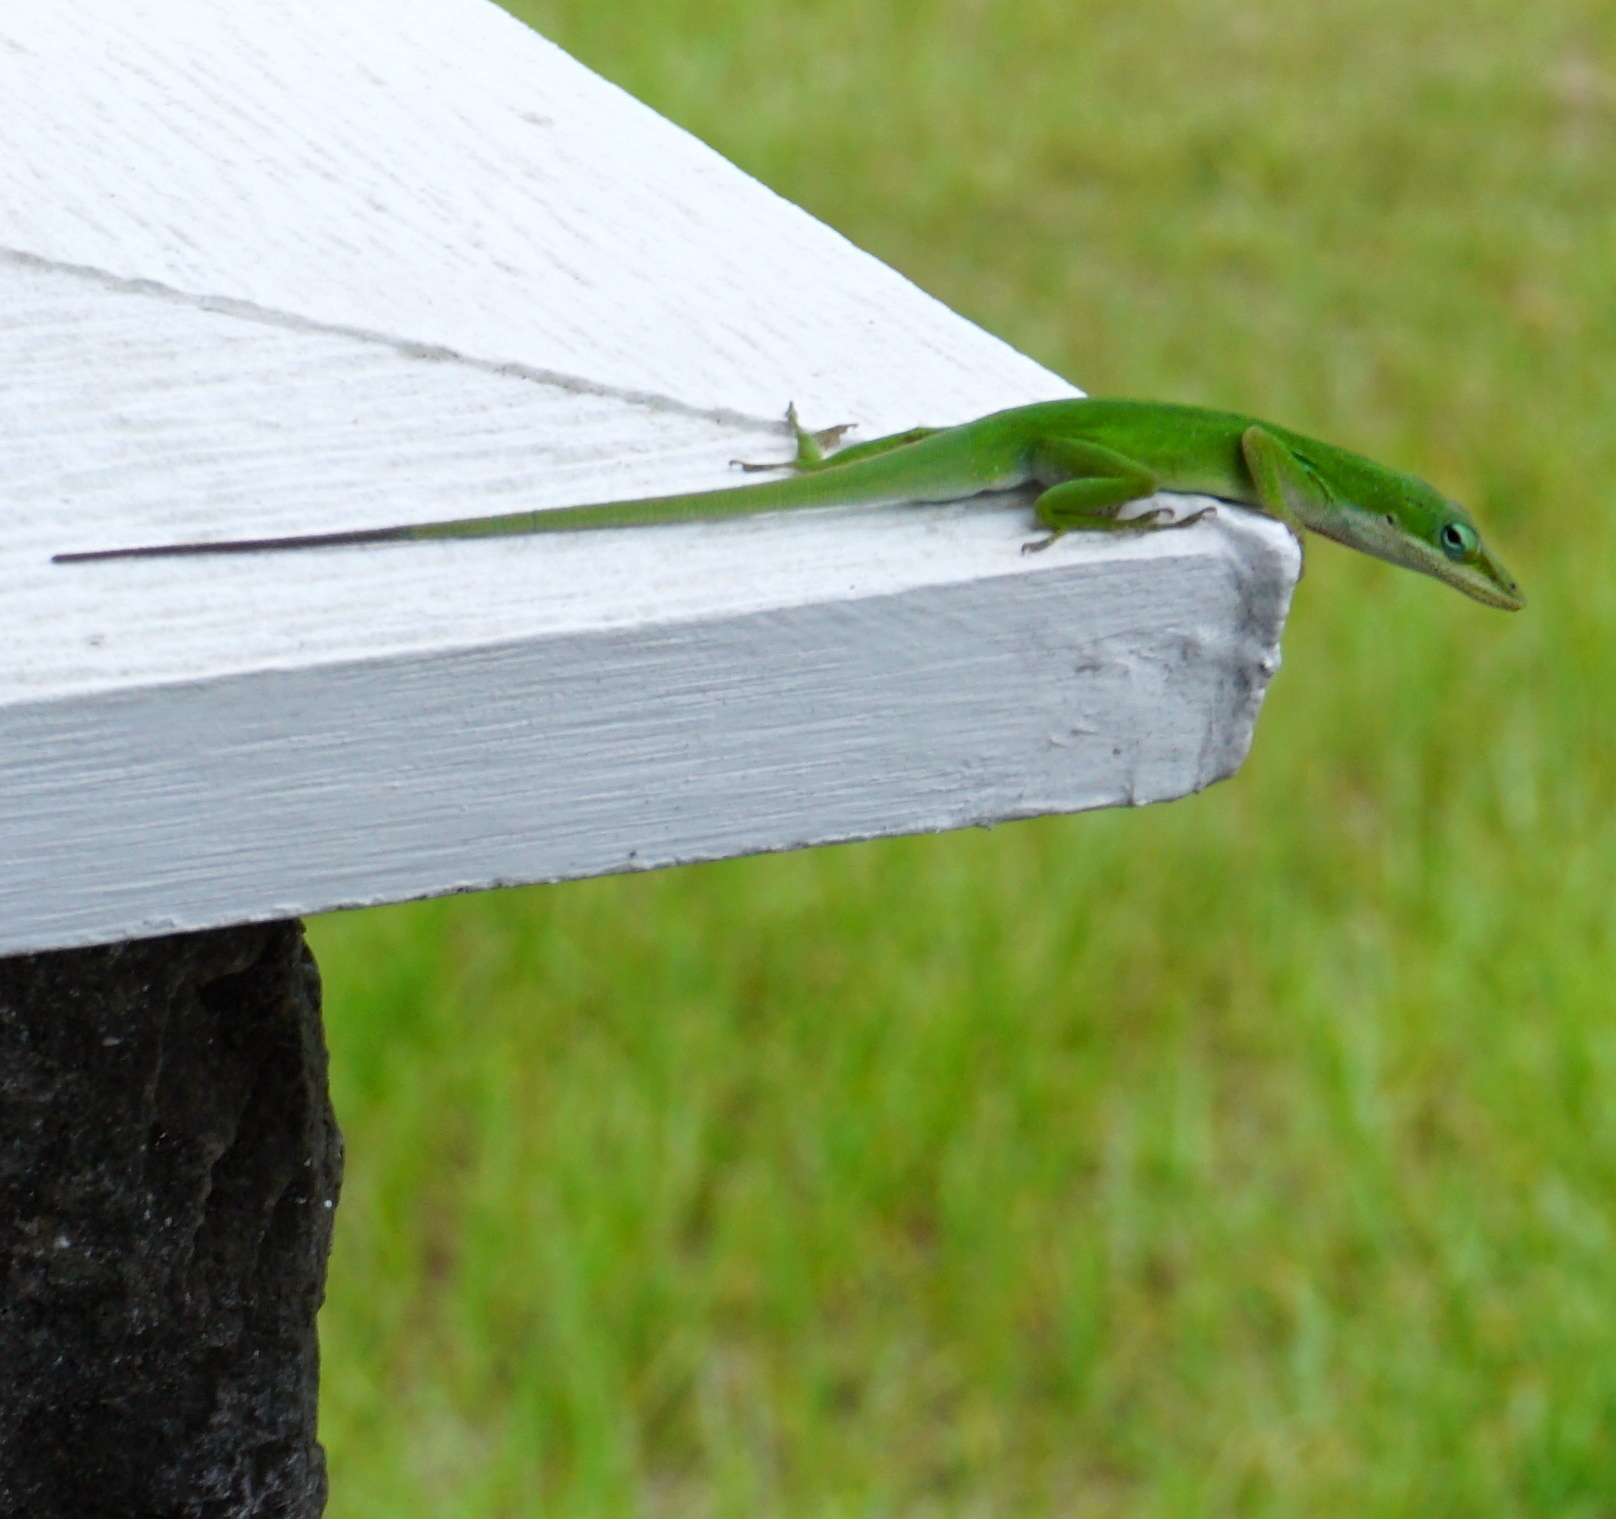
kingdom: Animalia
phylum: Chordata
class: Squamata
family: Dactyloidae
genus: Anolis
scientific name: Anolis carolinensis
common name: Green anole
